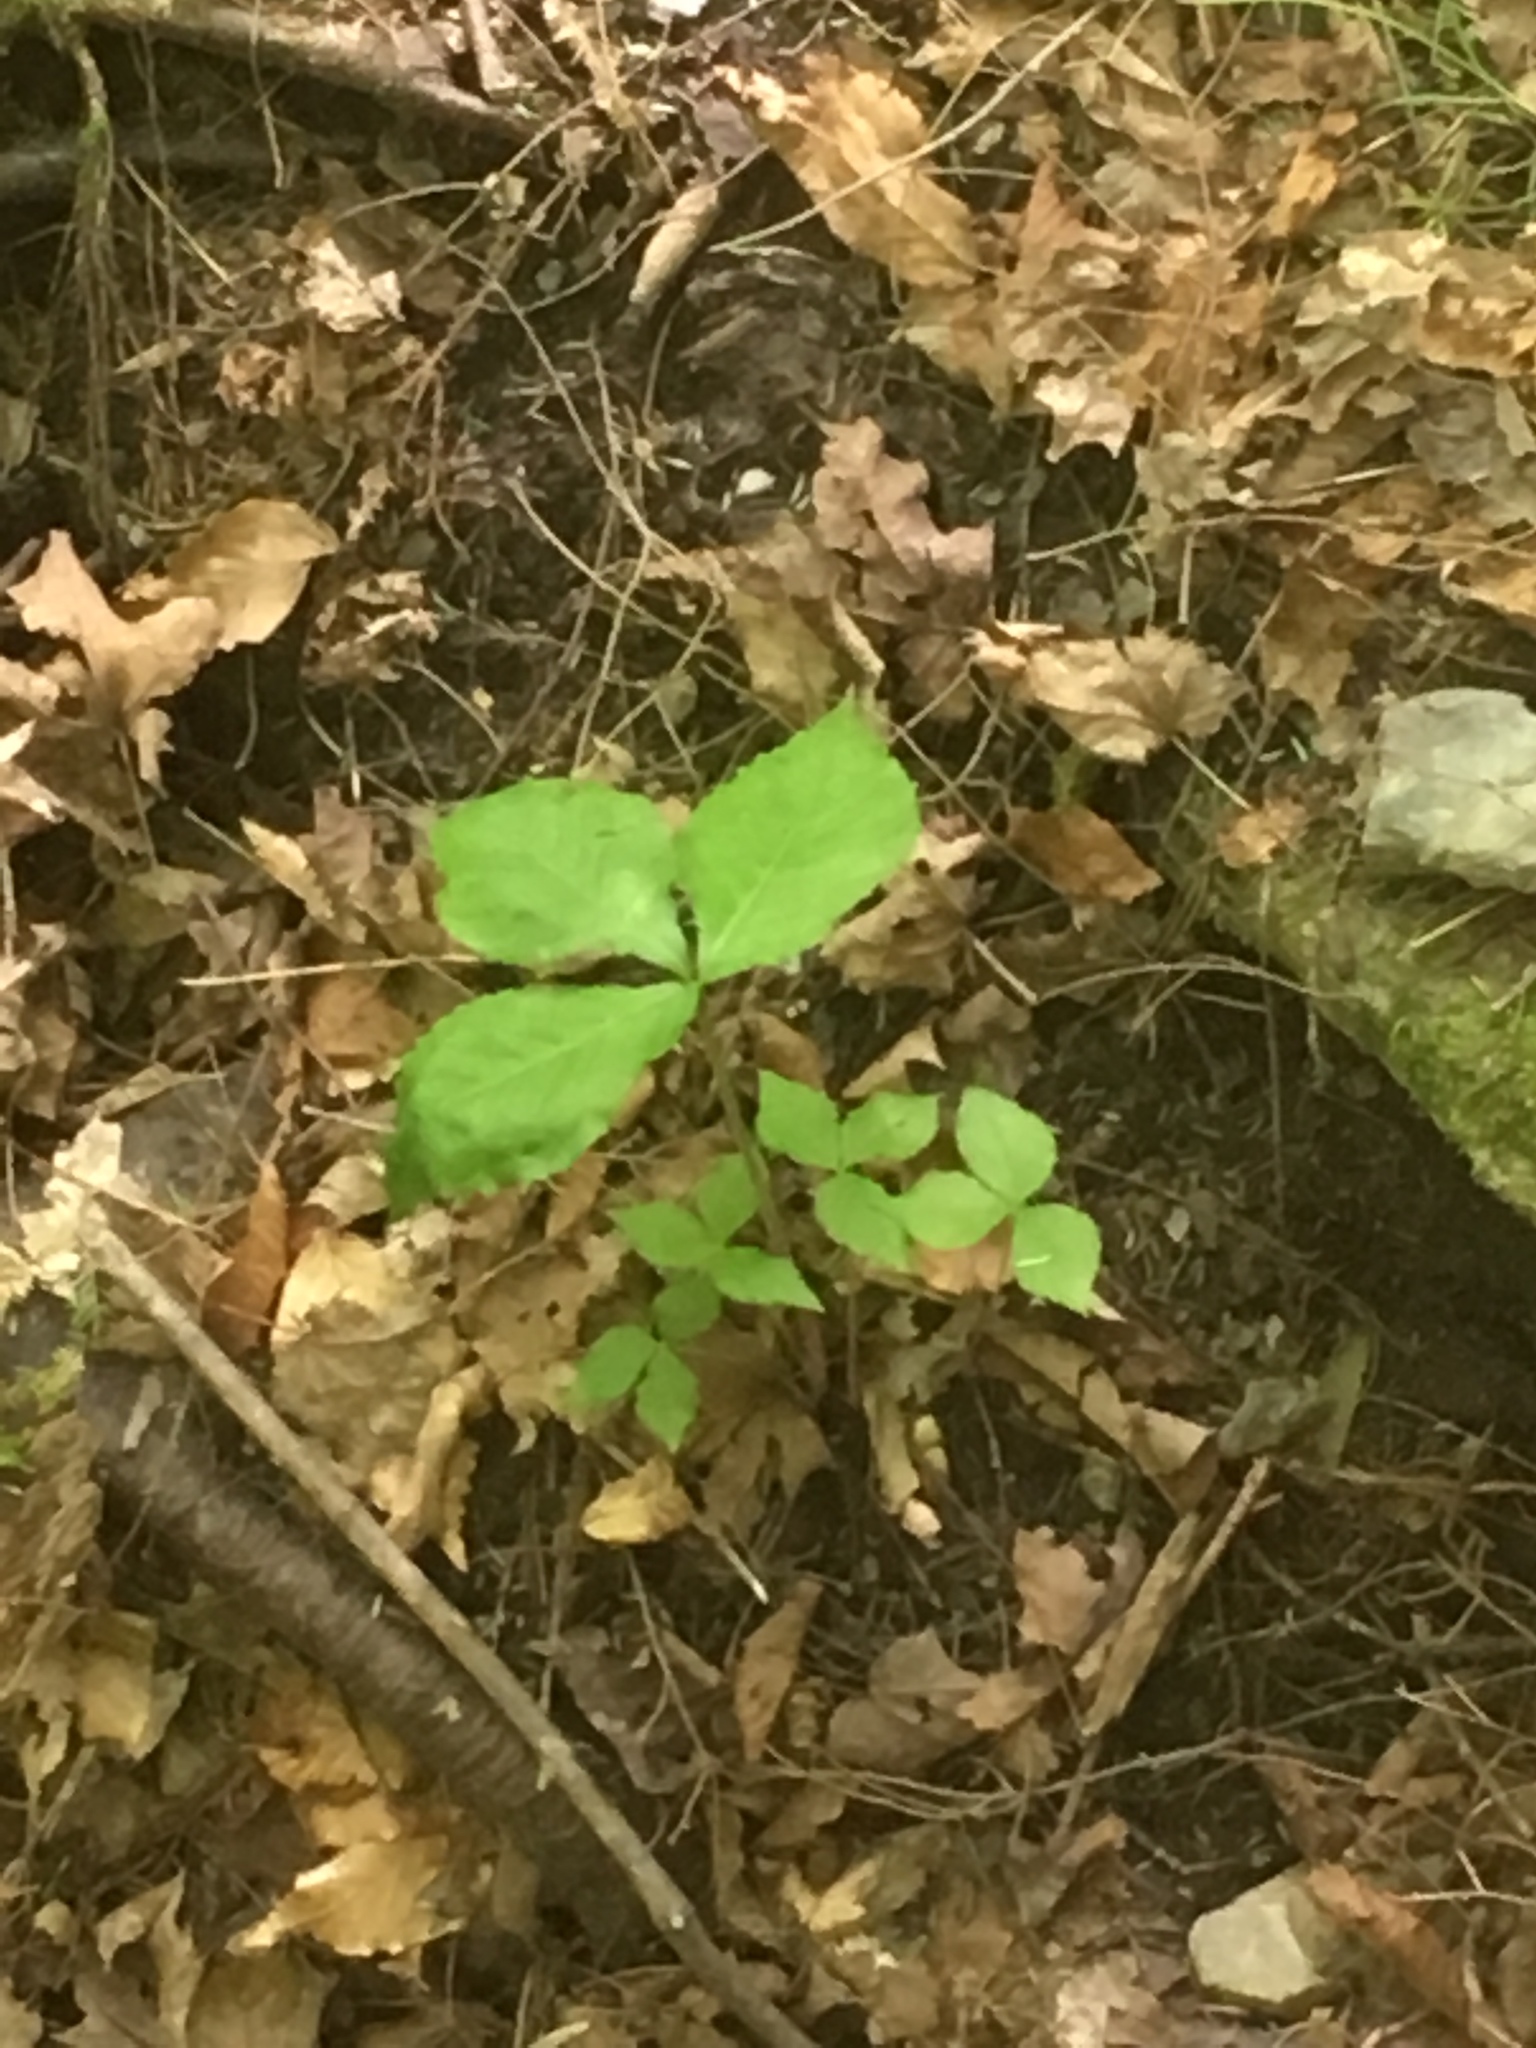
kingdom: Plantae
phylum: Tracheophyta
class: Liliopsida
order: Alismatales
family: Araceae
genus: Arisaema
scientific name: Arisaema triphyllum
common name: Jack-in-the-pulpit
